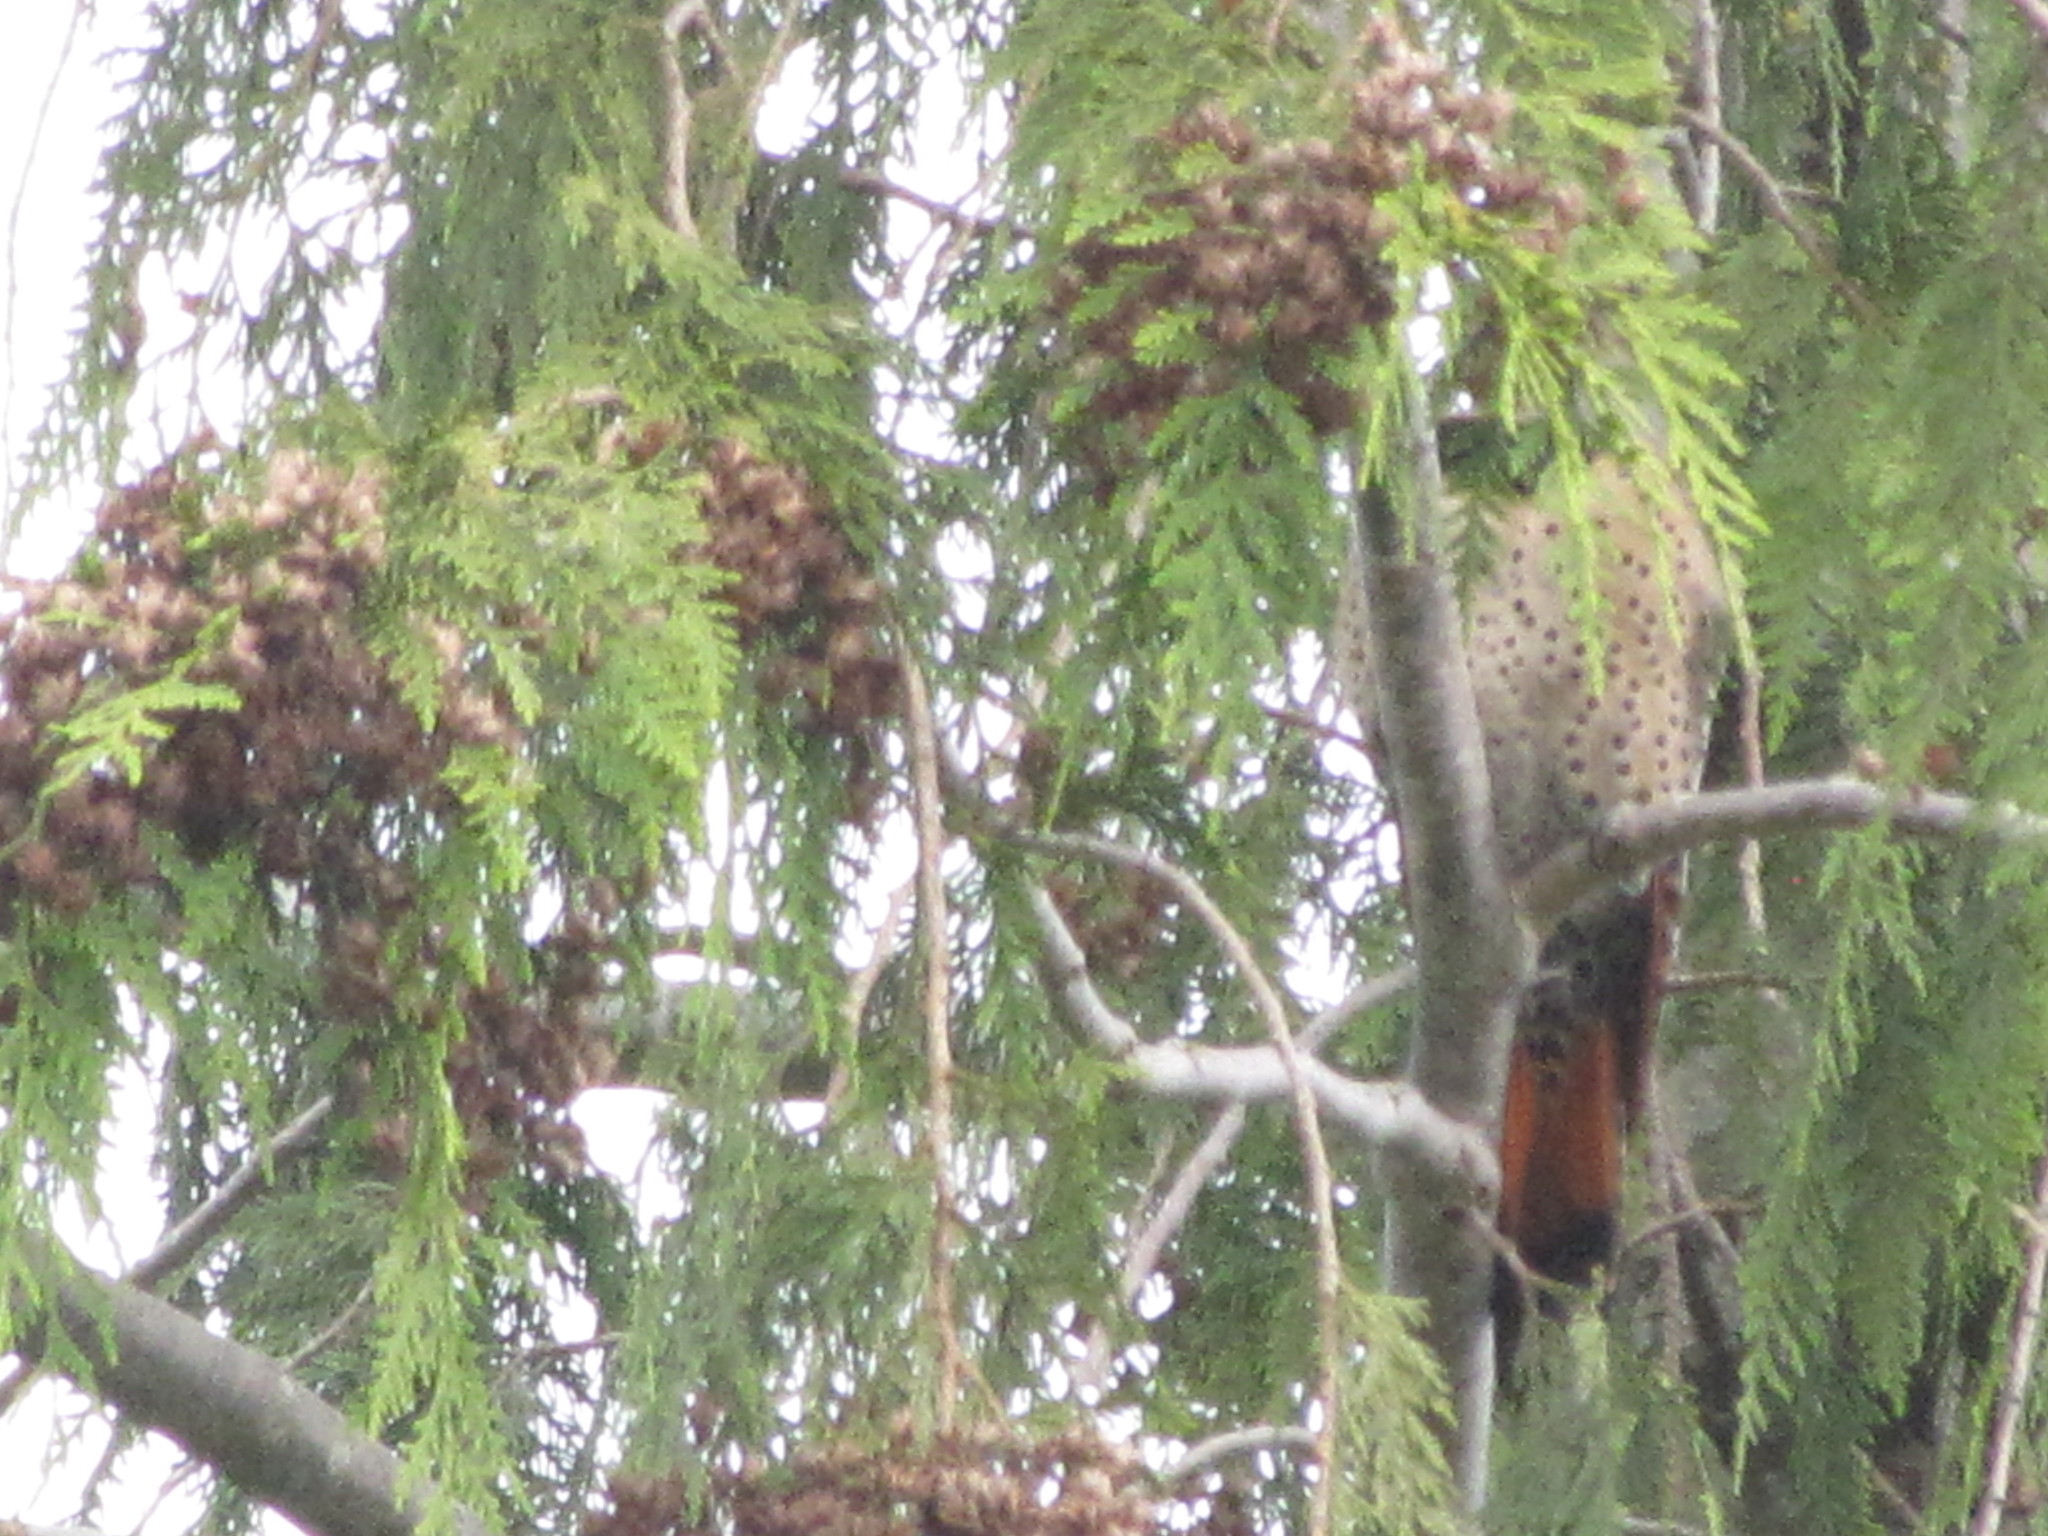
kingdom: Animalia
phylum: Chordata
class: Aves
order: Piciformes
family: Picidae
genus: Colaptes
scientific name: Colaptes auratus
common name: Northern flicker
